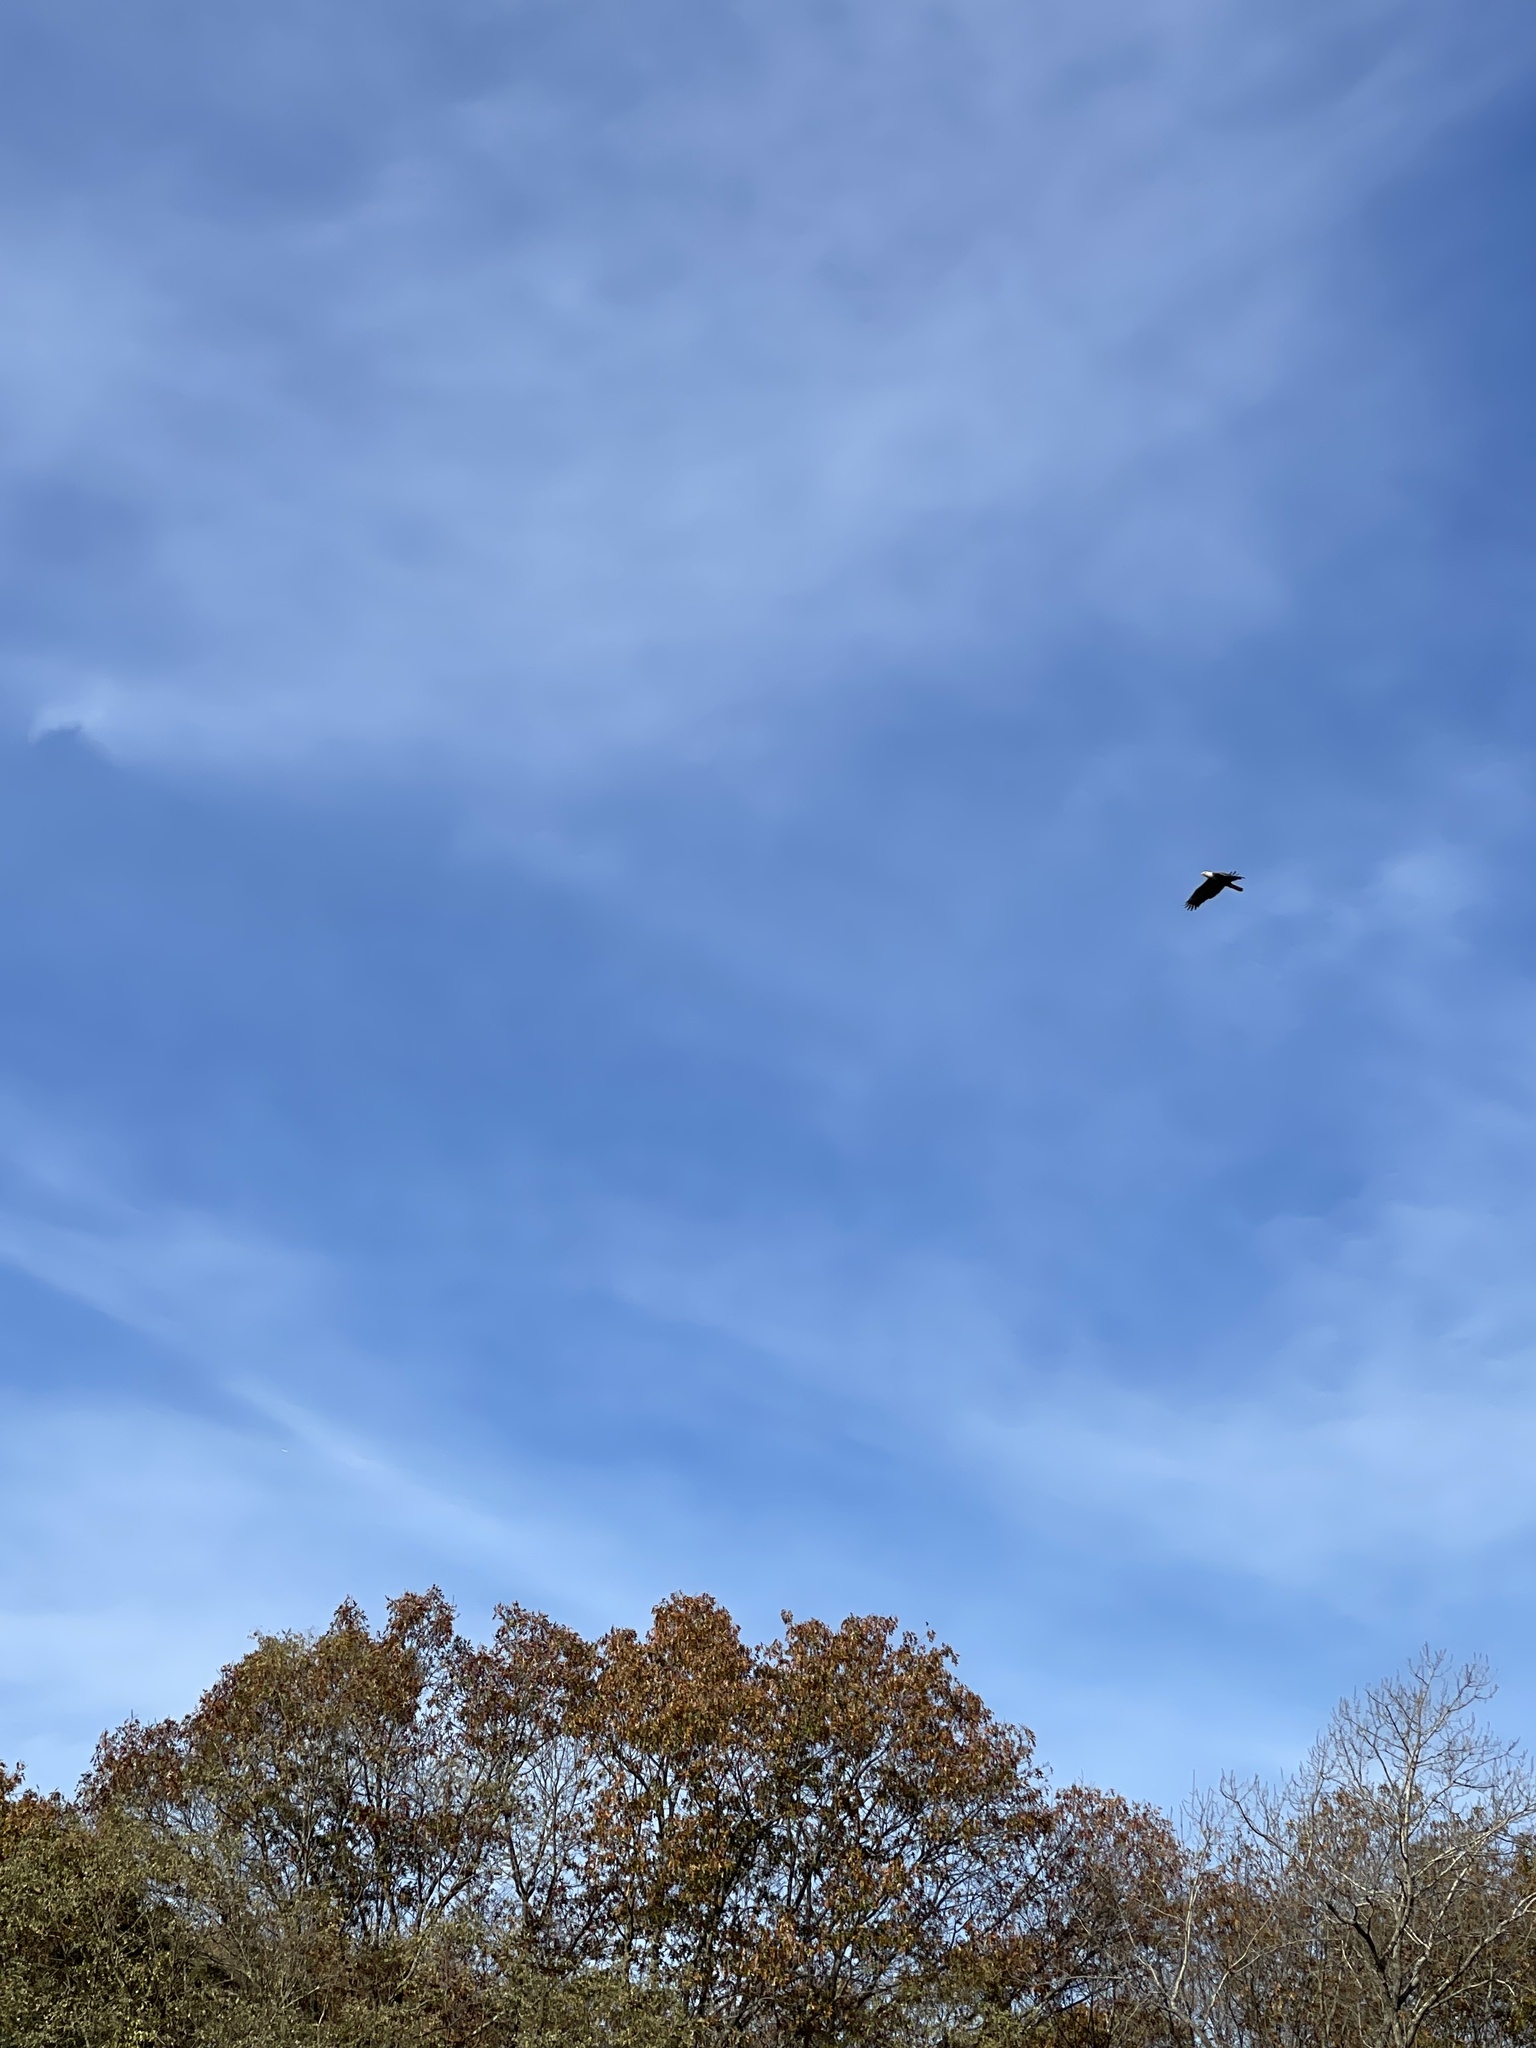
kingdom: Animalia
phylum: Chordata
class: Aves
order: Accipitriformes
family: Accipitridae
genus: Haliaeetus
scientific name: Haliaeetus leucocephalus
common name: Bald eagle
